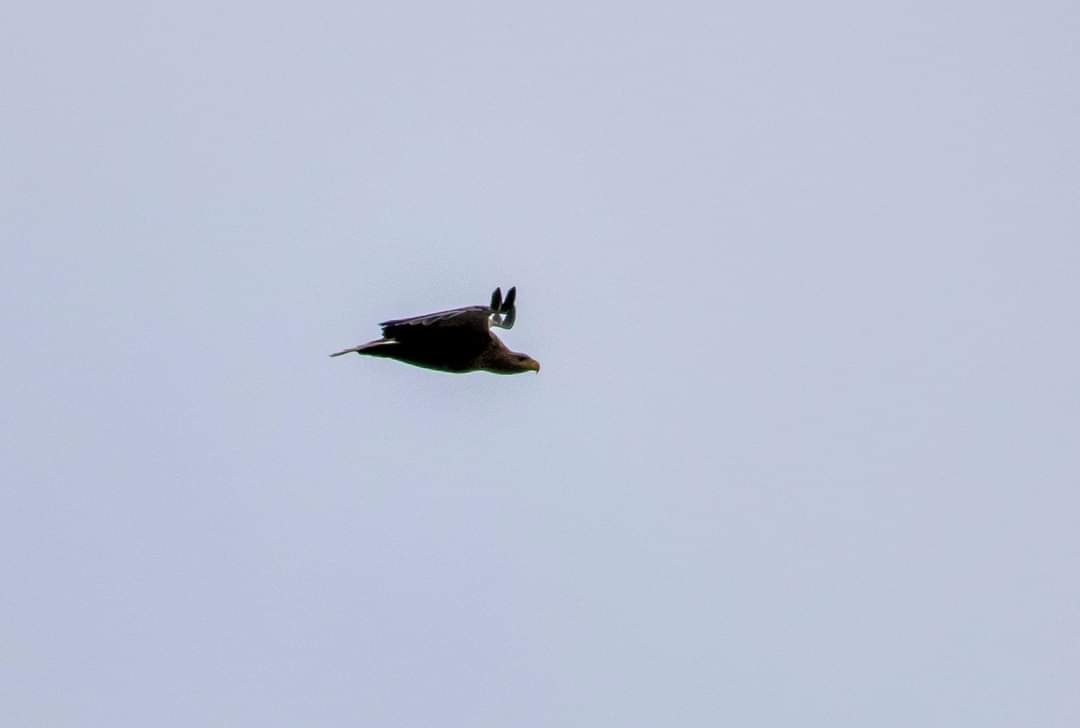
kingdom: Animalia
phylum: Chordata
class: Aves
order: Accipitriformes
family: Accipitridae
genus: Haliaeetus
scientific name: Haliaeetus albicilla
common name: White-tailed eagle
